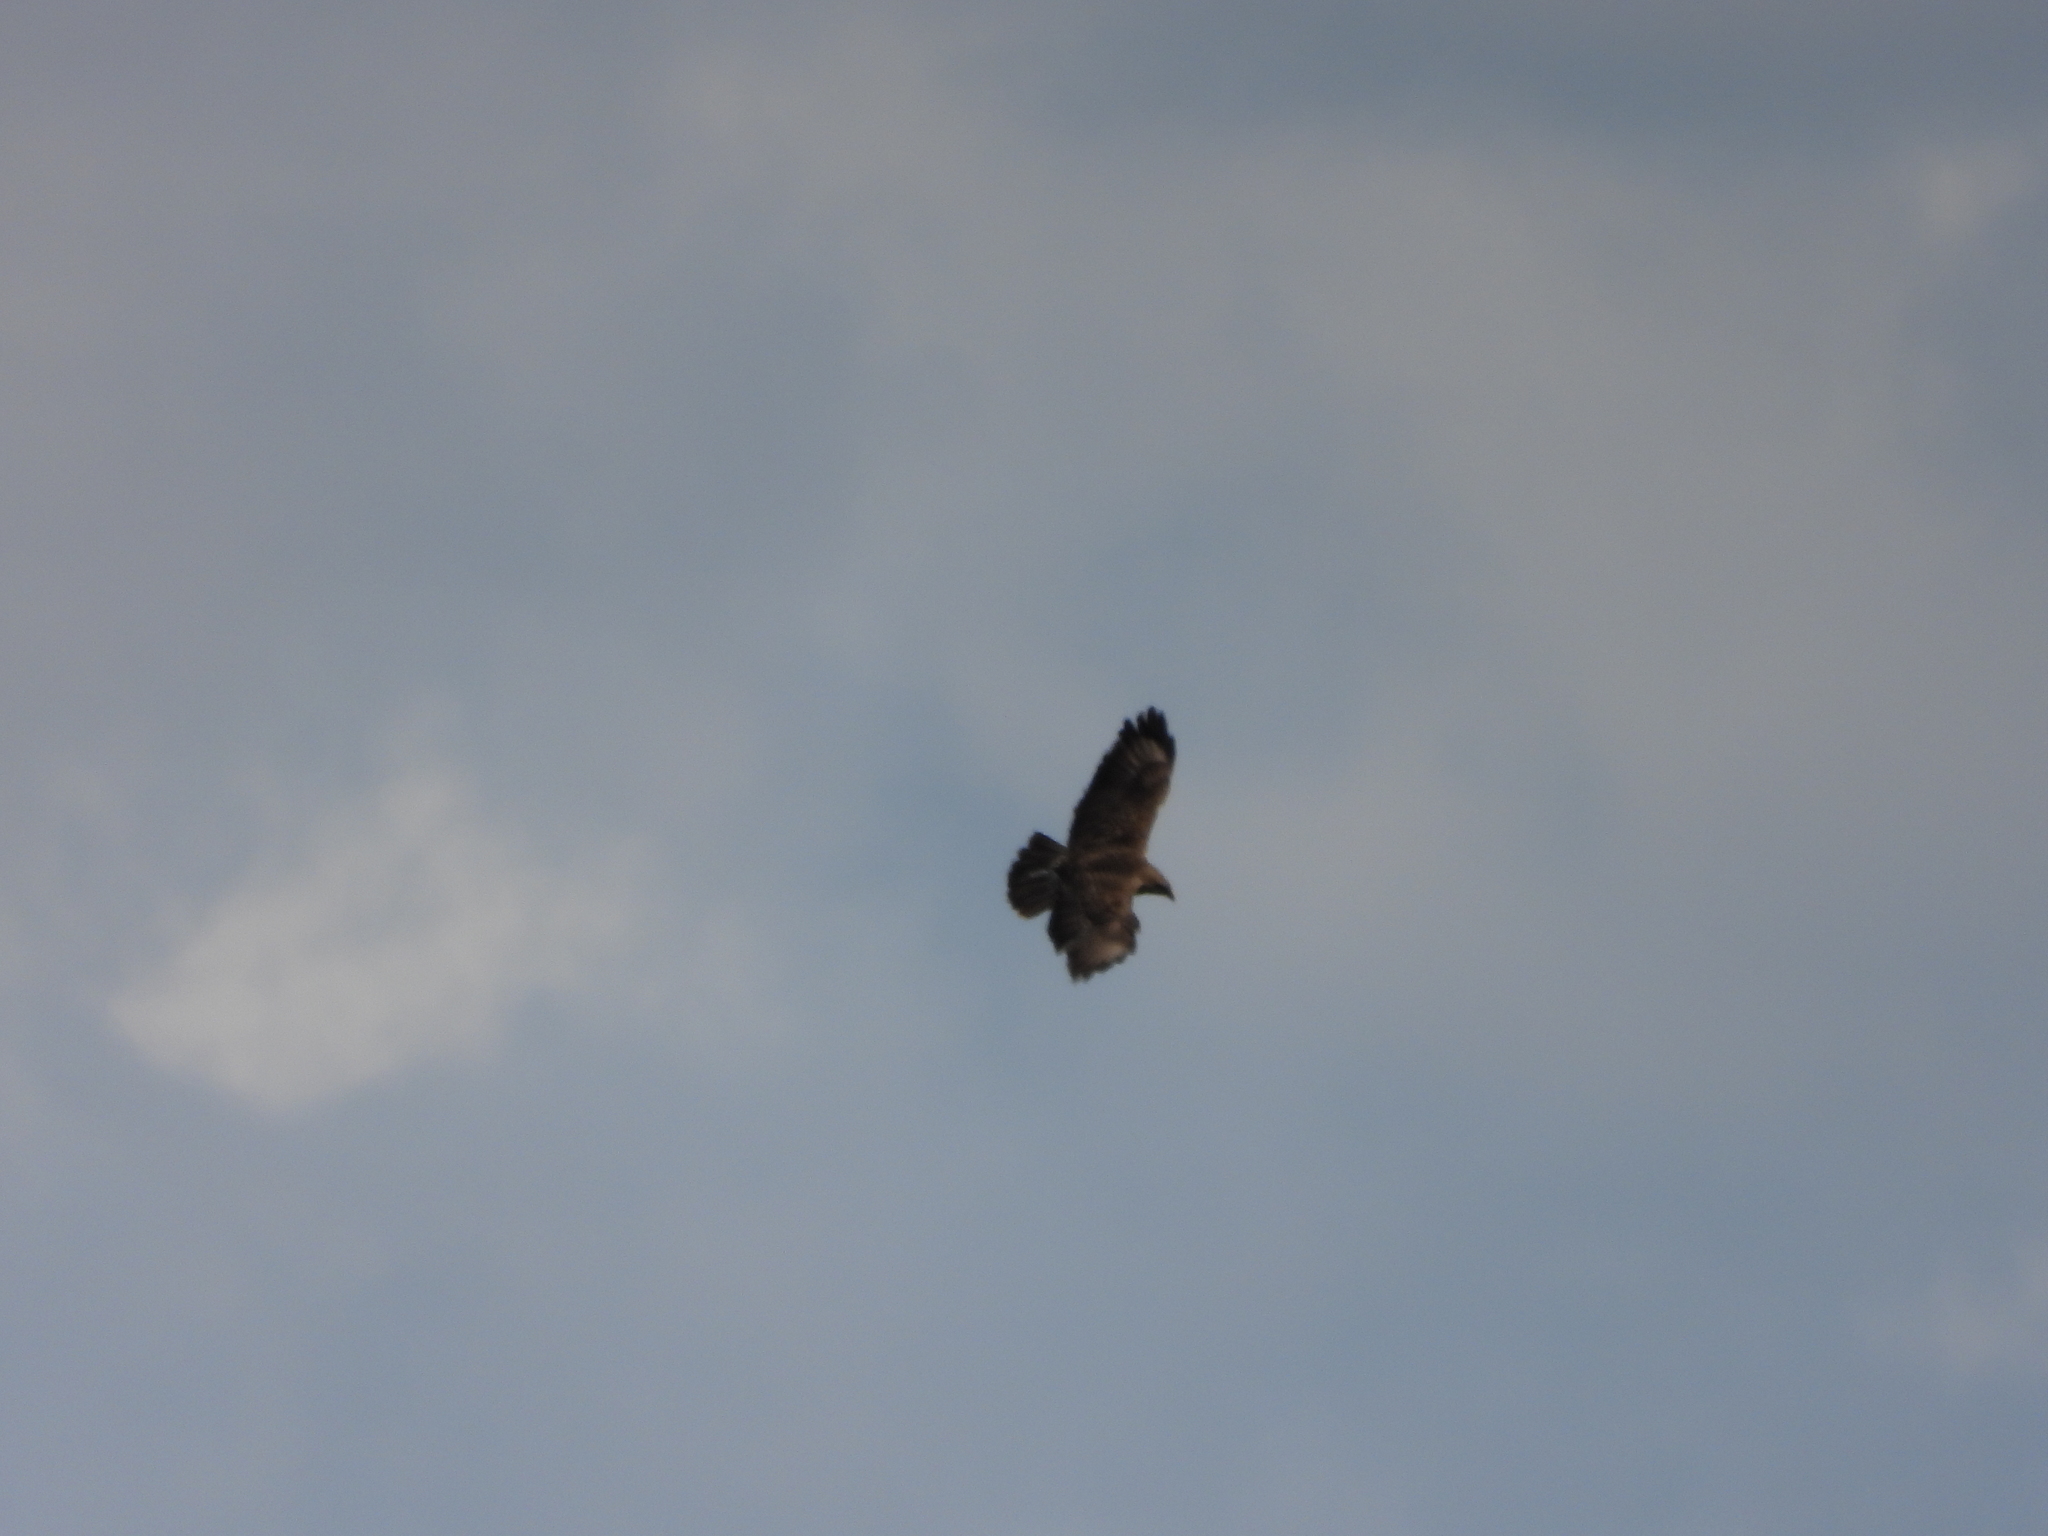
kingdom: Animalia
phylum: Chordata
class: Aves
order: Accipitriformes
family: Accipitridae
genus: Buteo
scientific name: Buteo buteo
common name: Common buzzard
